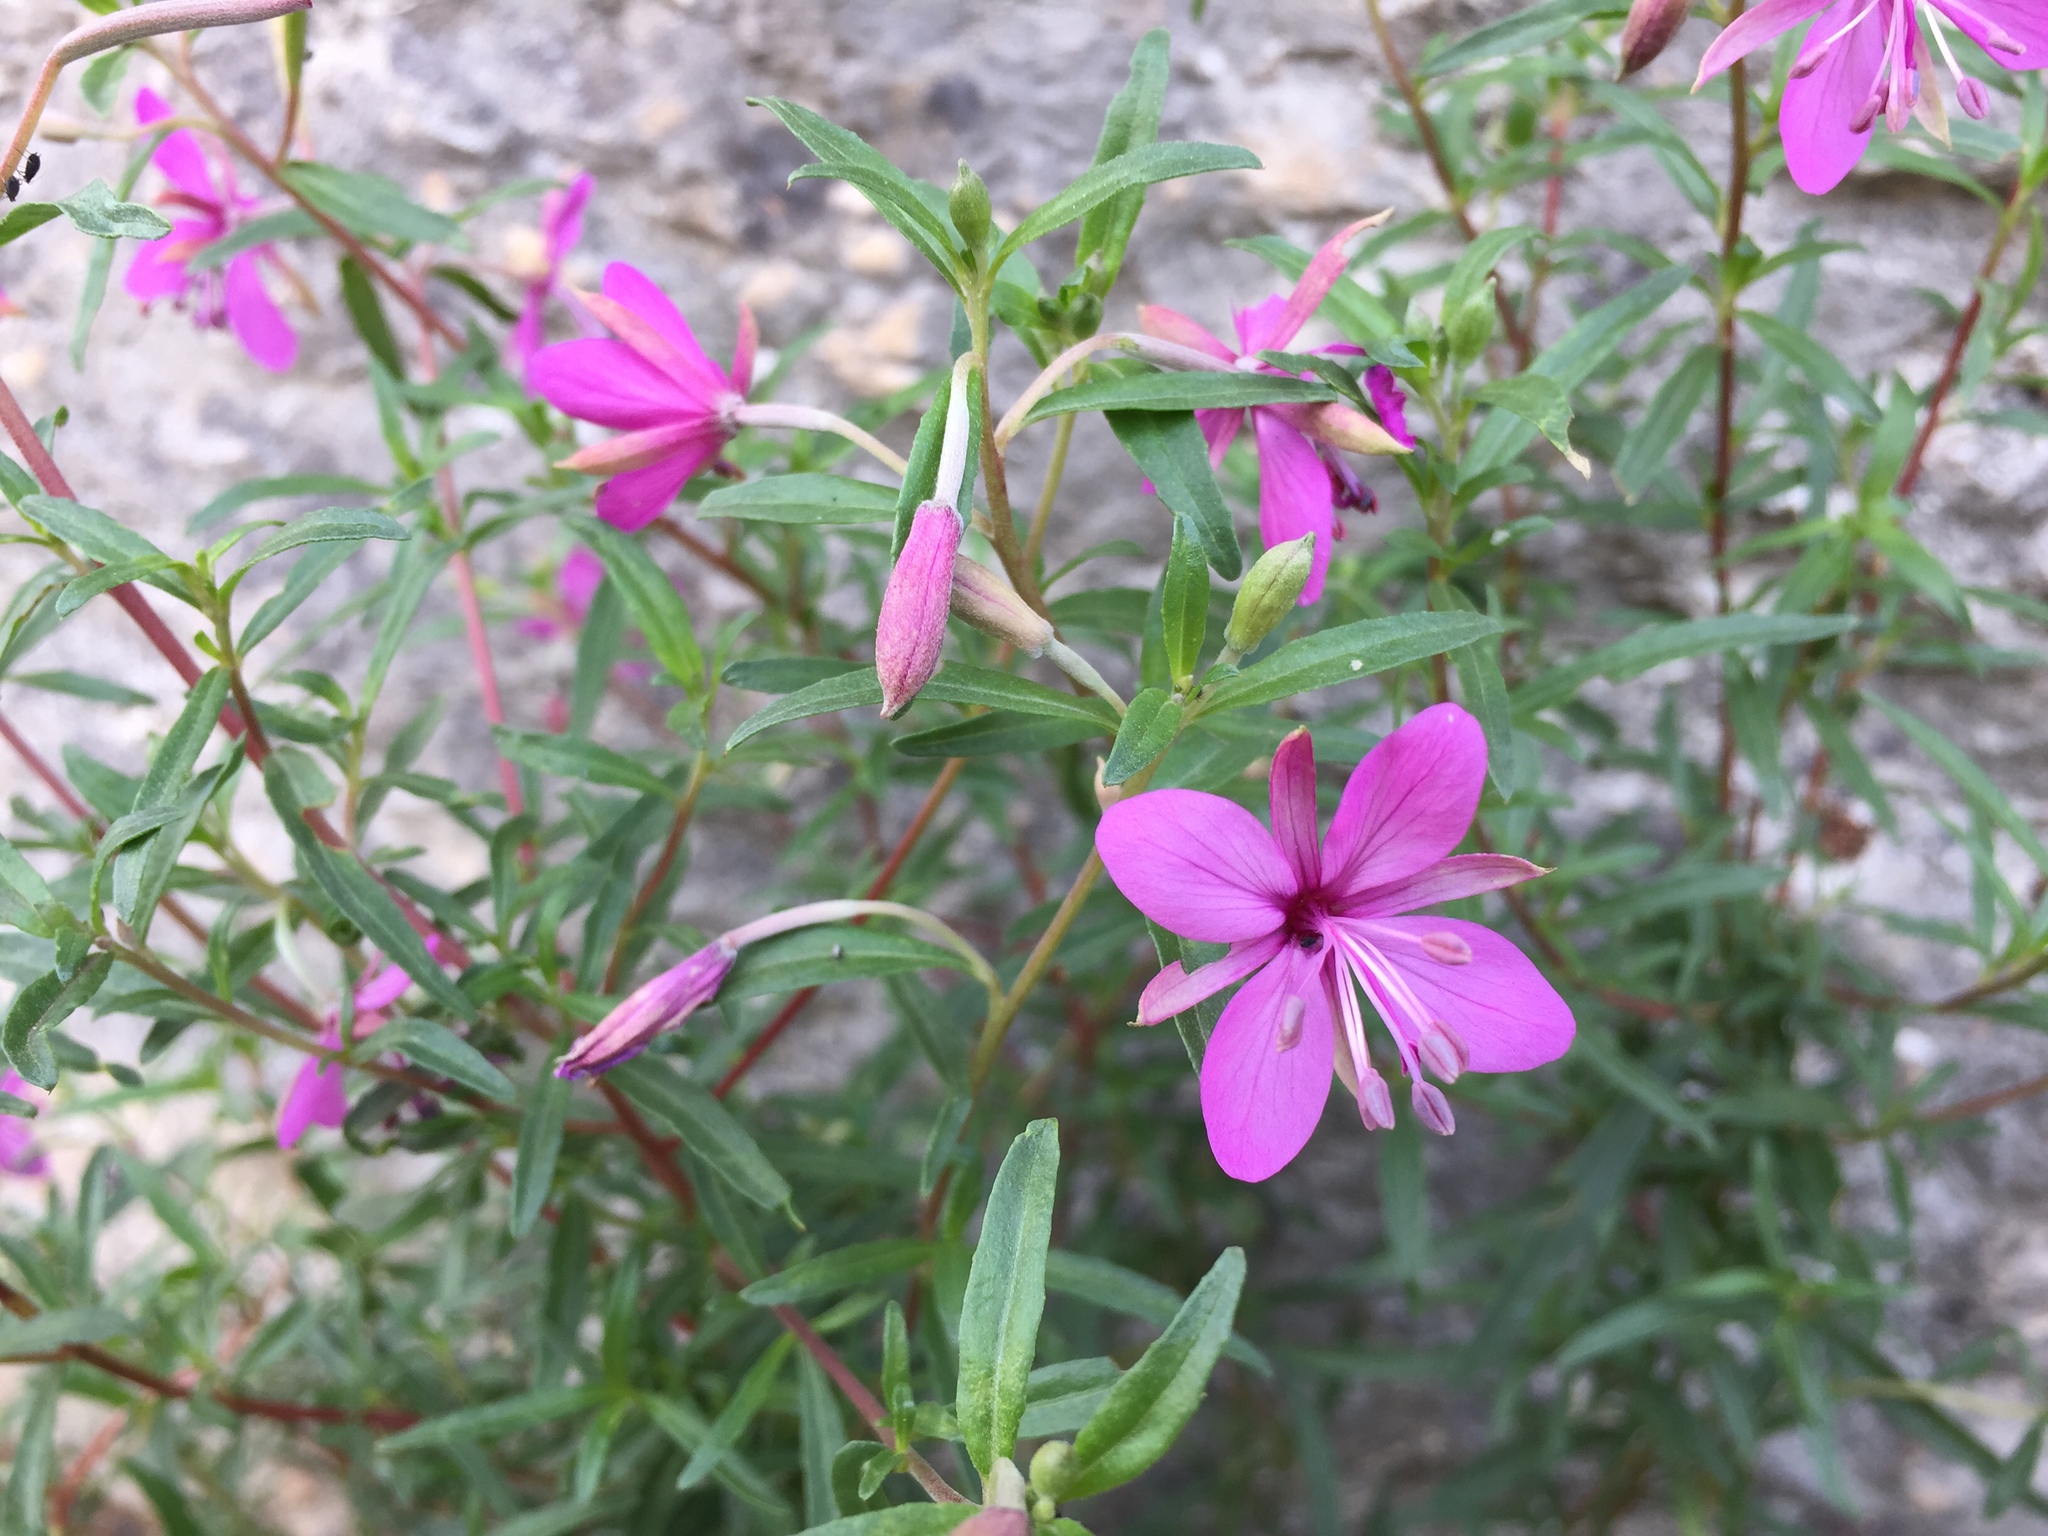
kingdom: Plantae
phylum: Tracheophyta
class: Magnoliopsida
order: Myrtales
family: Onagraceae
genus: Chamaenerion
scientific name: Chamaenerion dodonaei
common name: Rosemary-leaved willowherb
